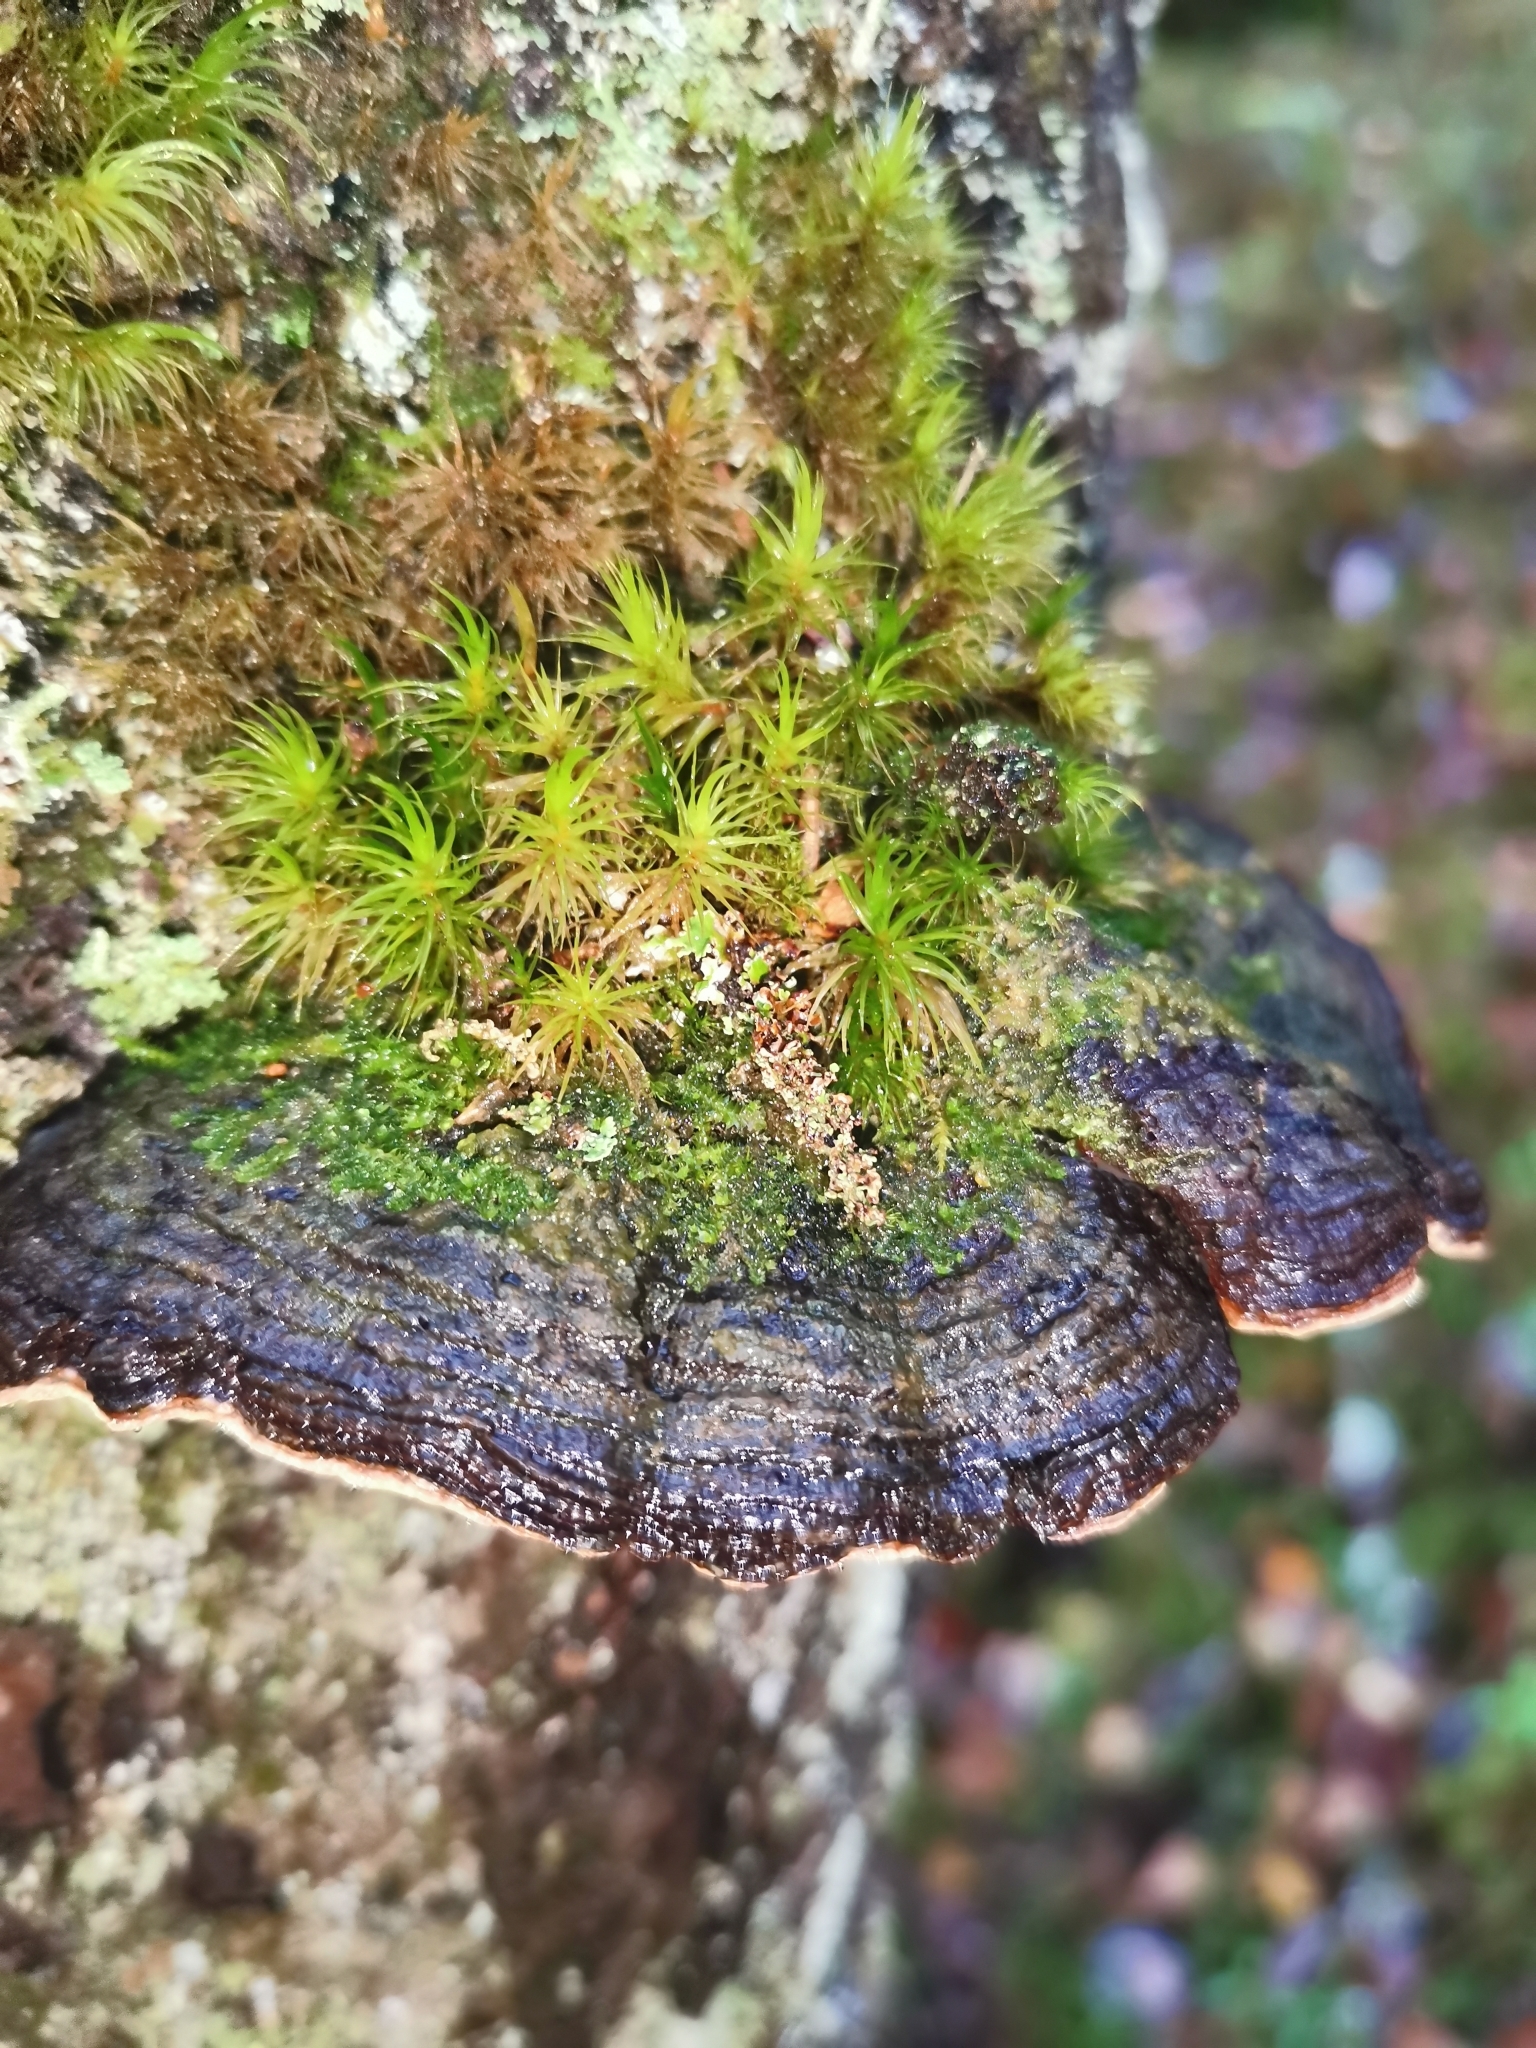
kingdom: Fungi
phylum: Basidiomycota
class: Agaricomycetes
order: Polyporales
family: Fomitopsidaceae
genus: Fomitopsis
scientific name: Fomitopsis pinicola
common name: Red-belted bracket
